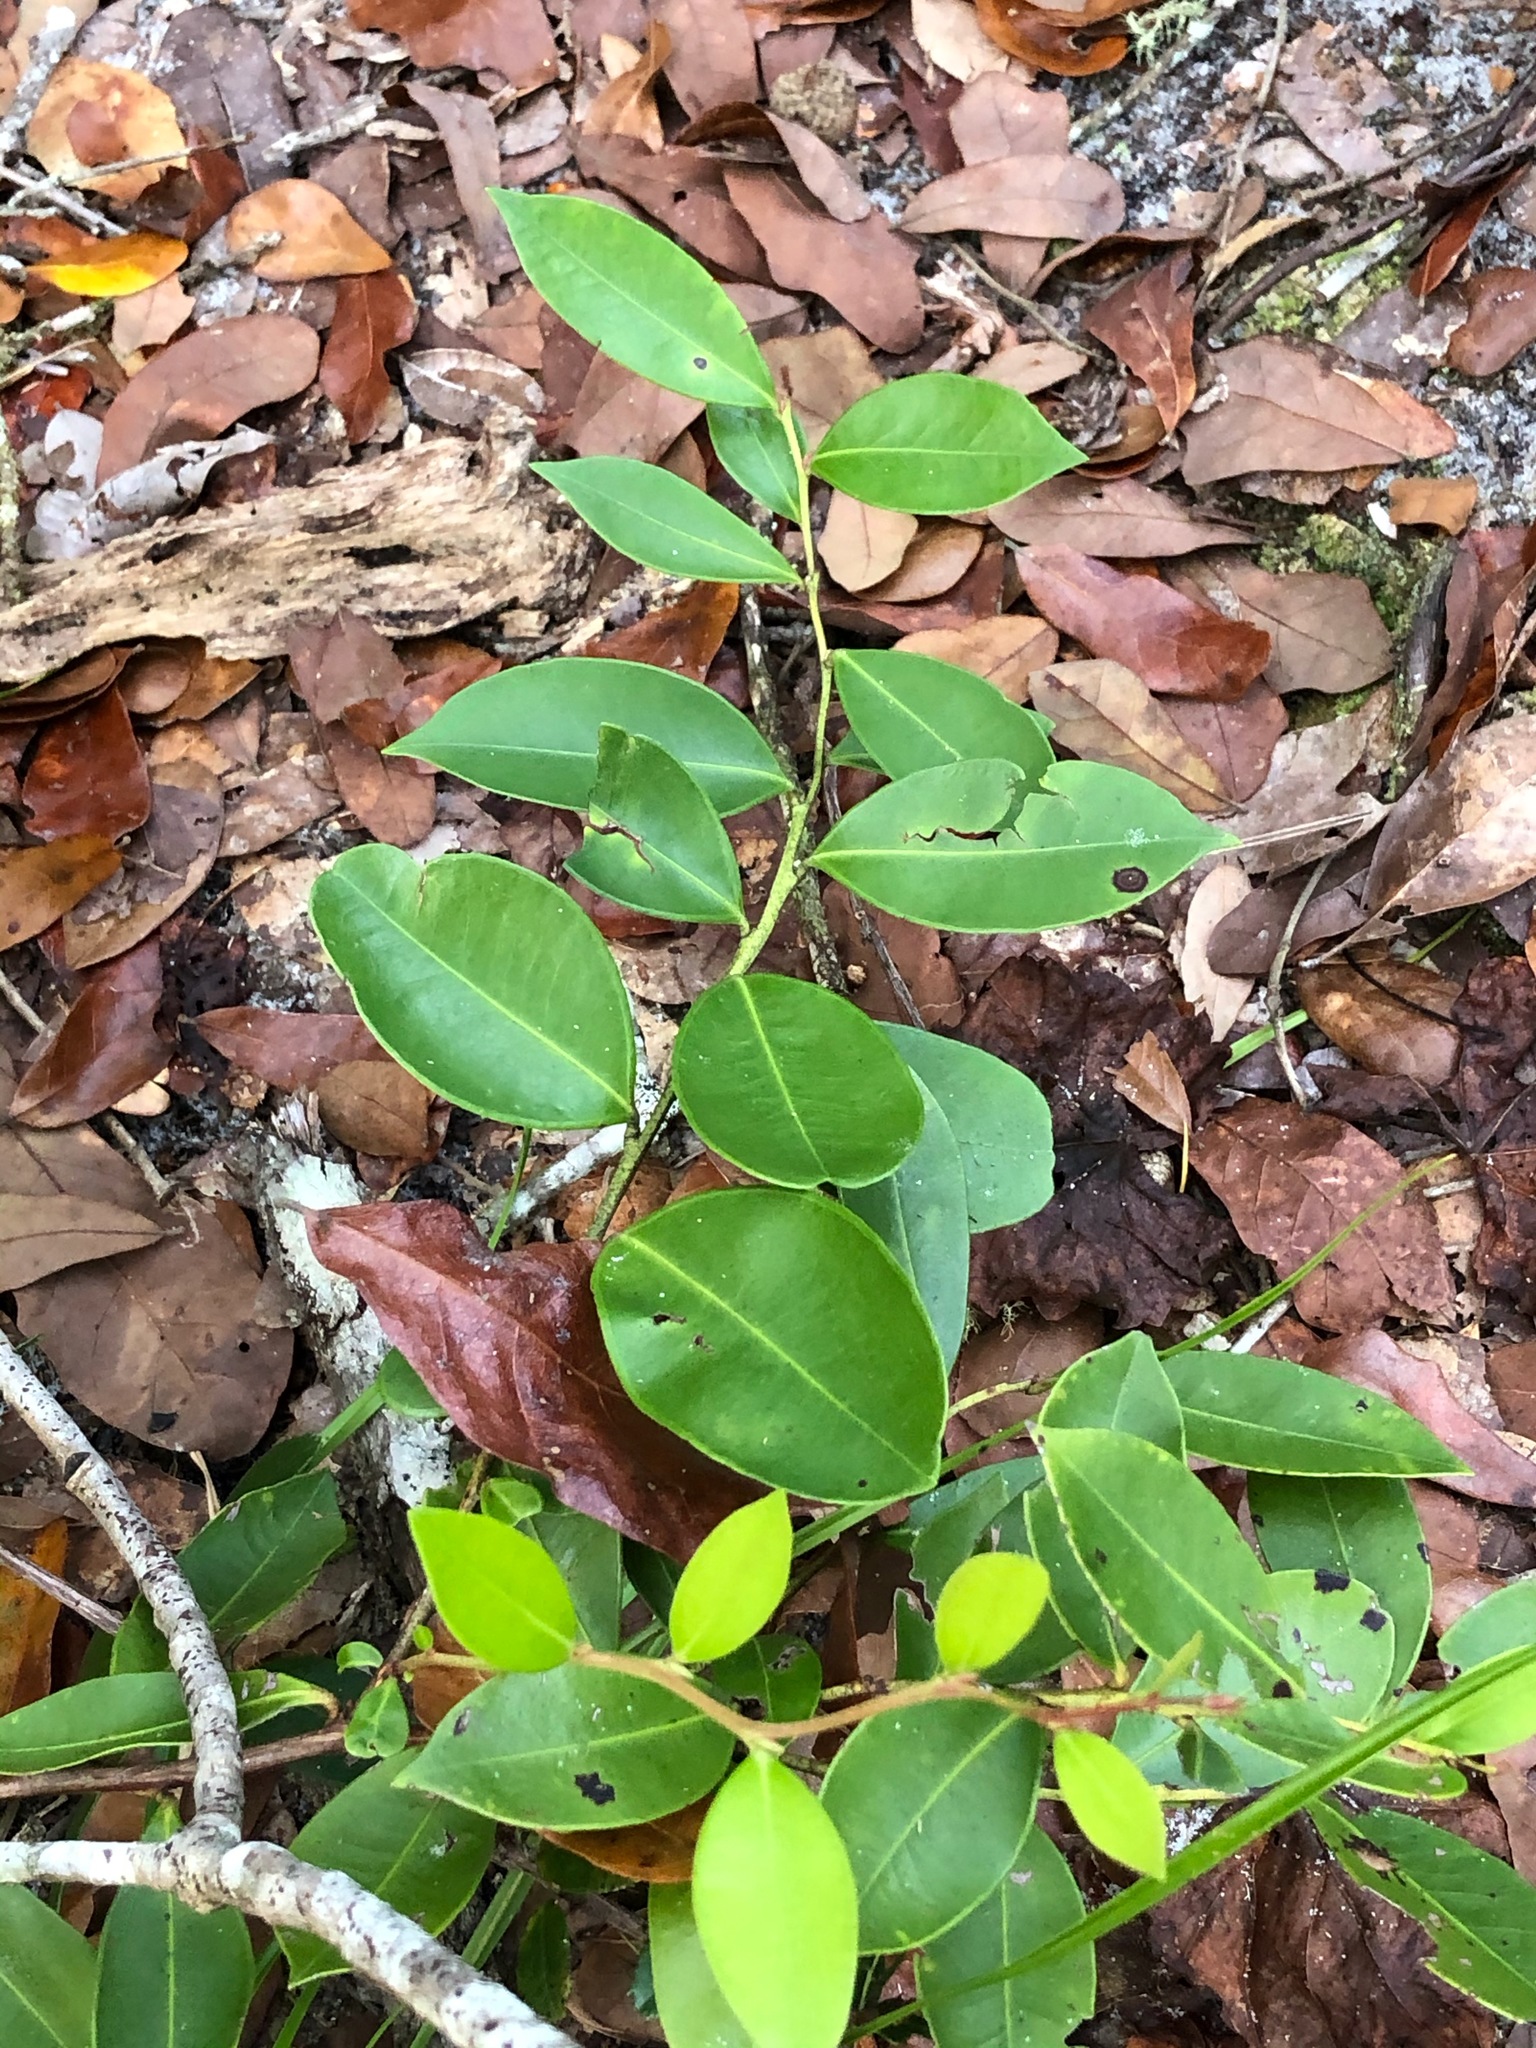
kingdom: Plantae
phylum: Tracheophyta
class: Magnoliopsida
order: Ericales
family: Ericaceae
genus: Lyonia
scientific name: Lyonia lucida
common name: Fetterbush
